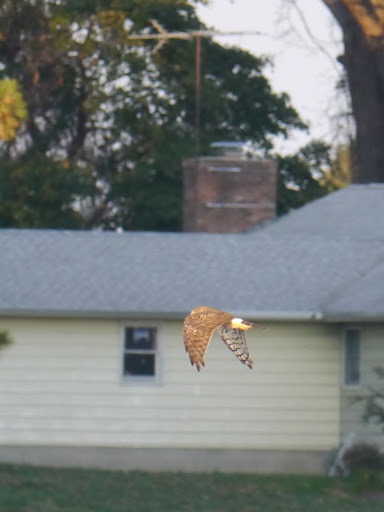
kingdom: Animalia
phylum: Chordata
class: Aves
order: Accipitriformes
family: Accipitridae
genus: Circus
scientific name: Circus cyaneus
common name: Hen harrier
